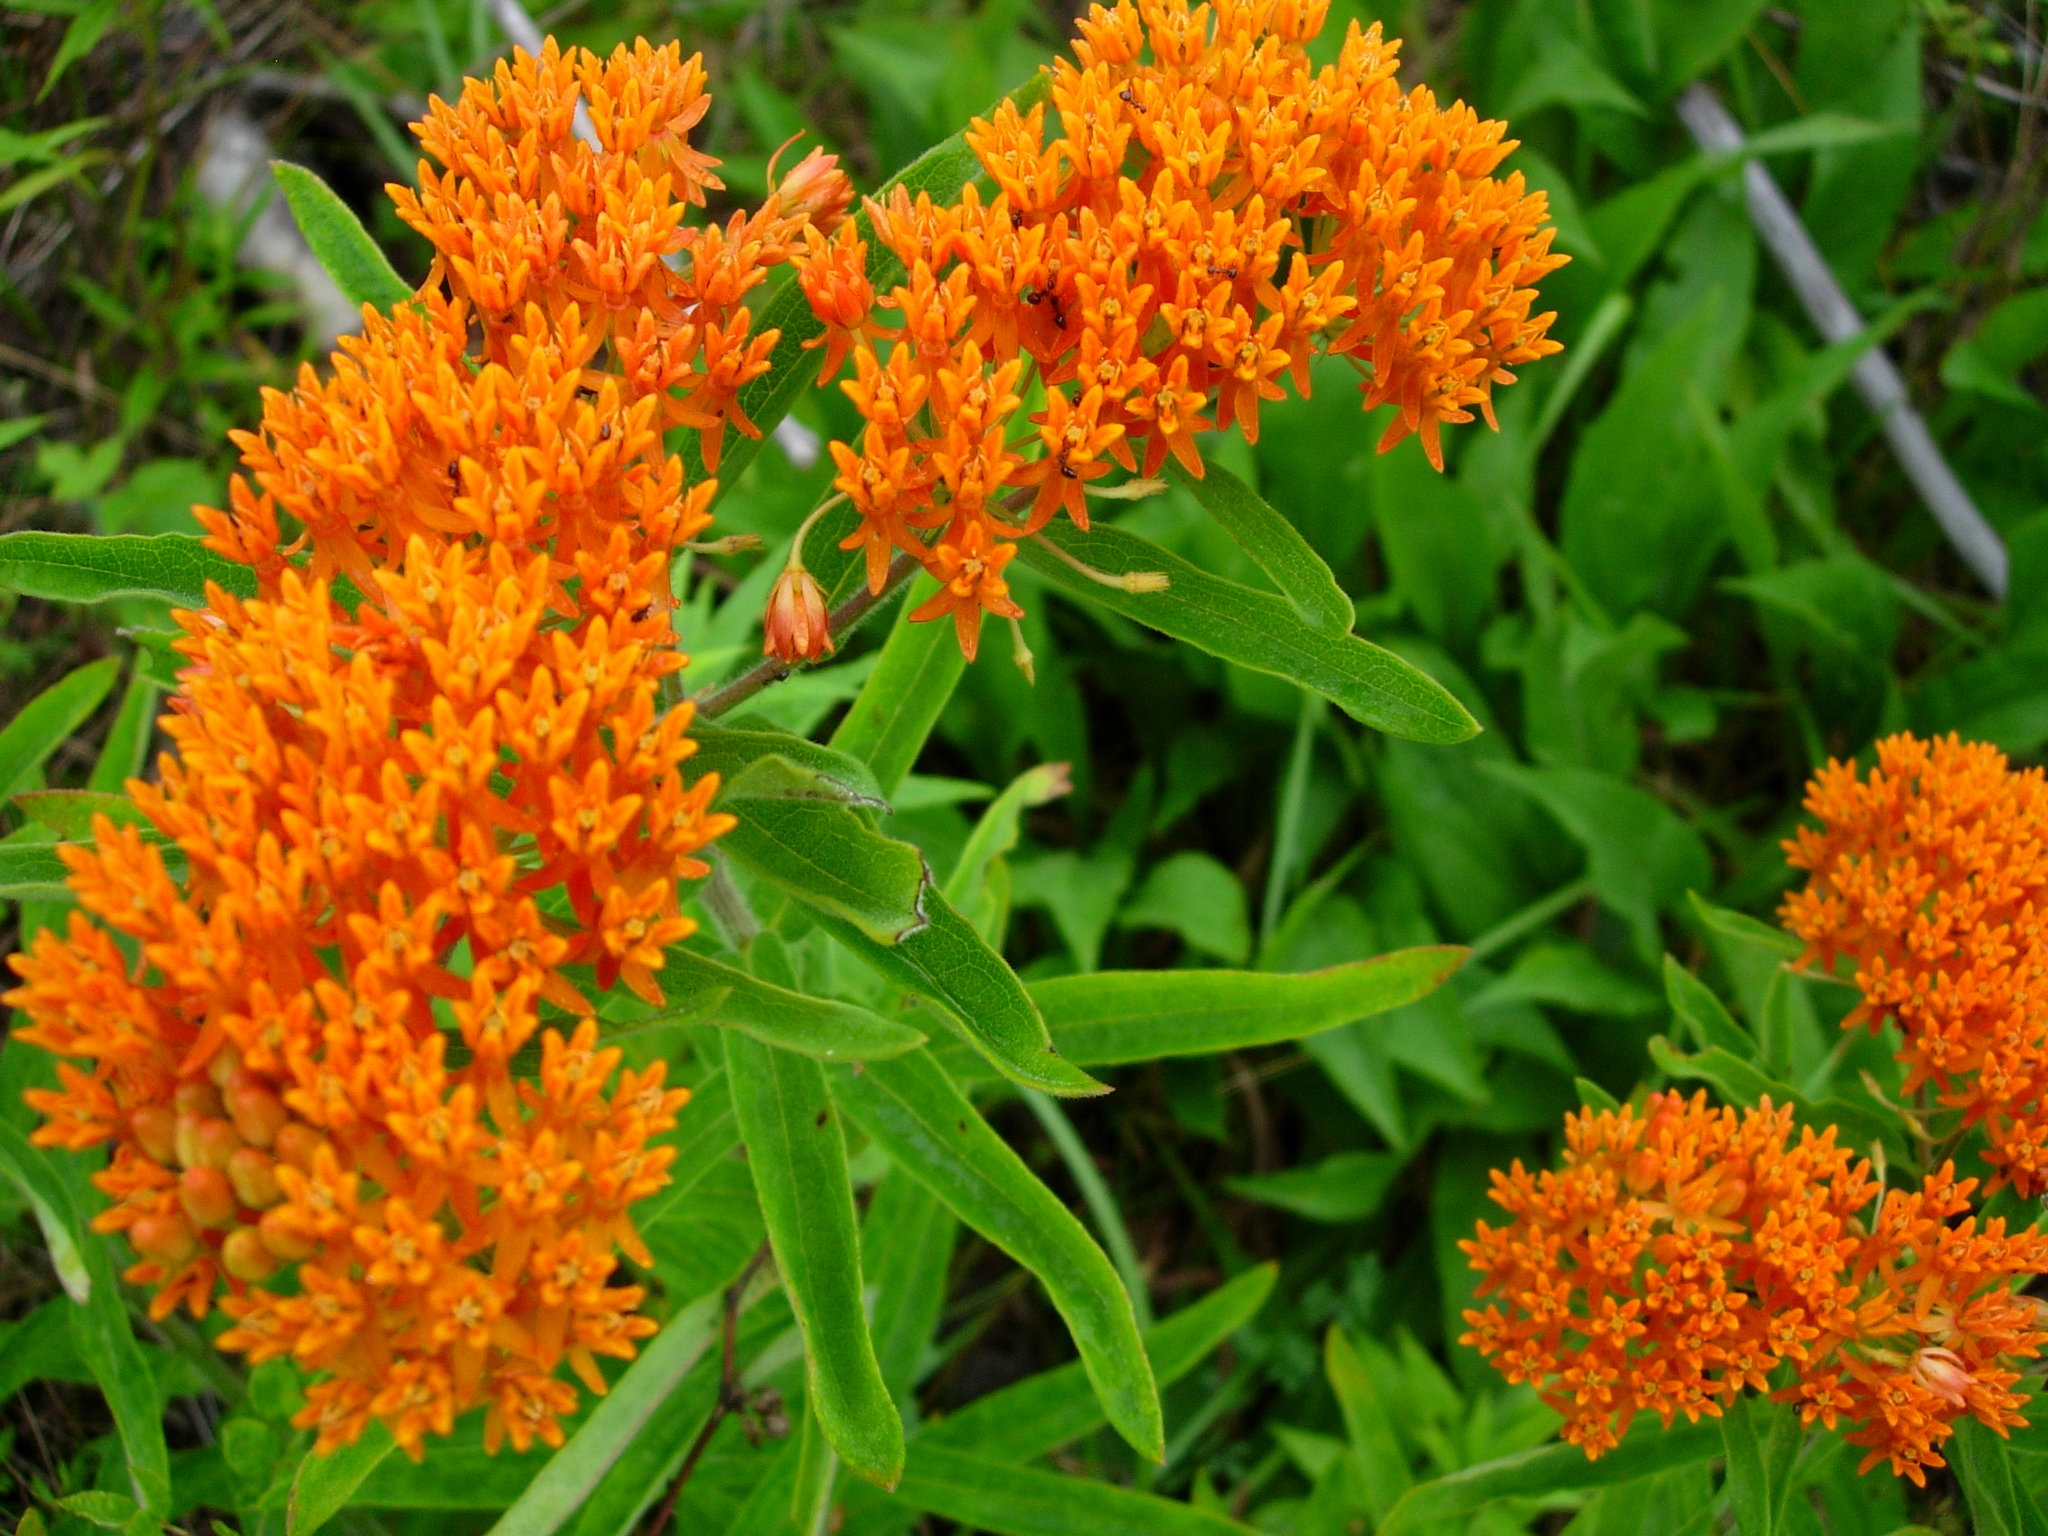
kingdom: Plantae
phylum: Tracheophyta
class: Magnoliopsida
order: Gentianales
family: Apocynaceae
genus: Asclepias
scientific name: Asclepias tuberosa
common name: Butterfly milkweed
